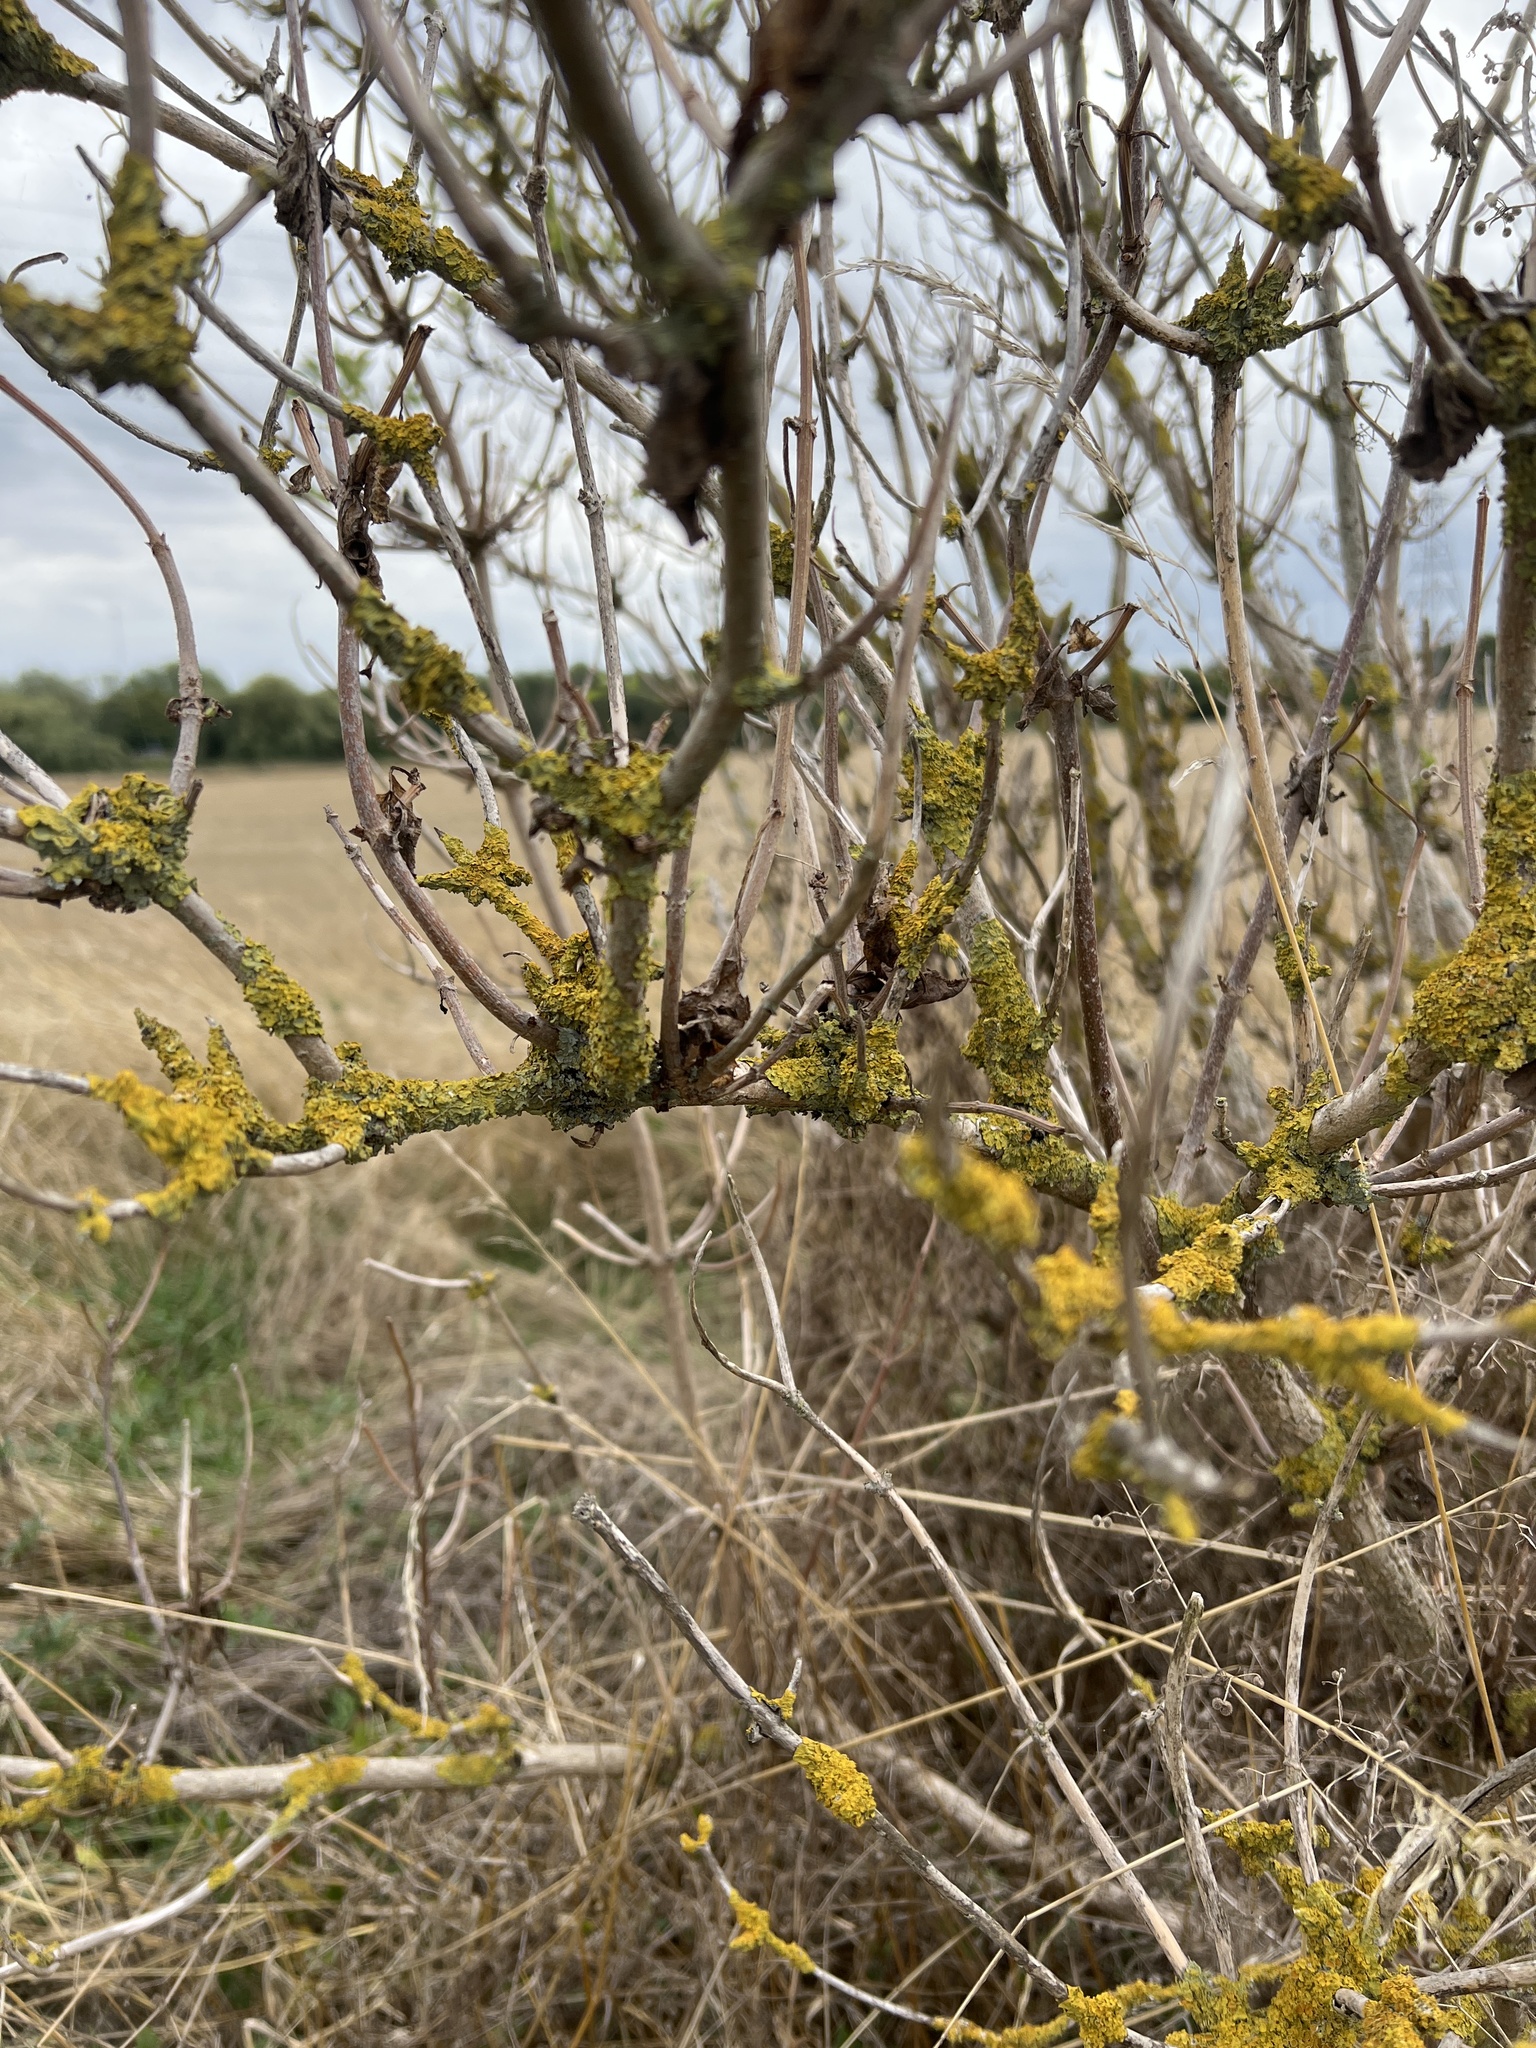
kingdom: Fungi
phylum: Ascomycota
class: Lecanoromycetes
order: Teloschistales
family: Teloschistaceae
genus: Xanthoria
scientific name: Xanthoria parietina
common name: Common orange lichen
